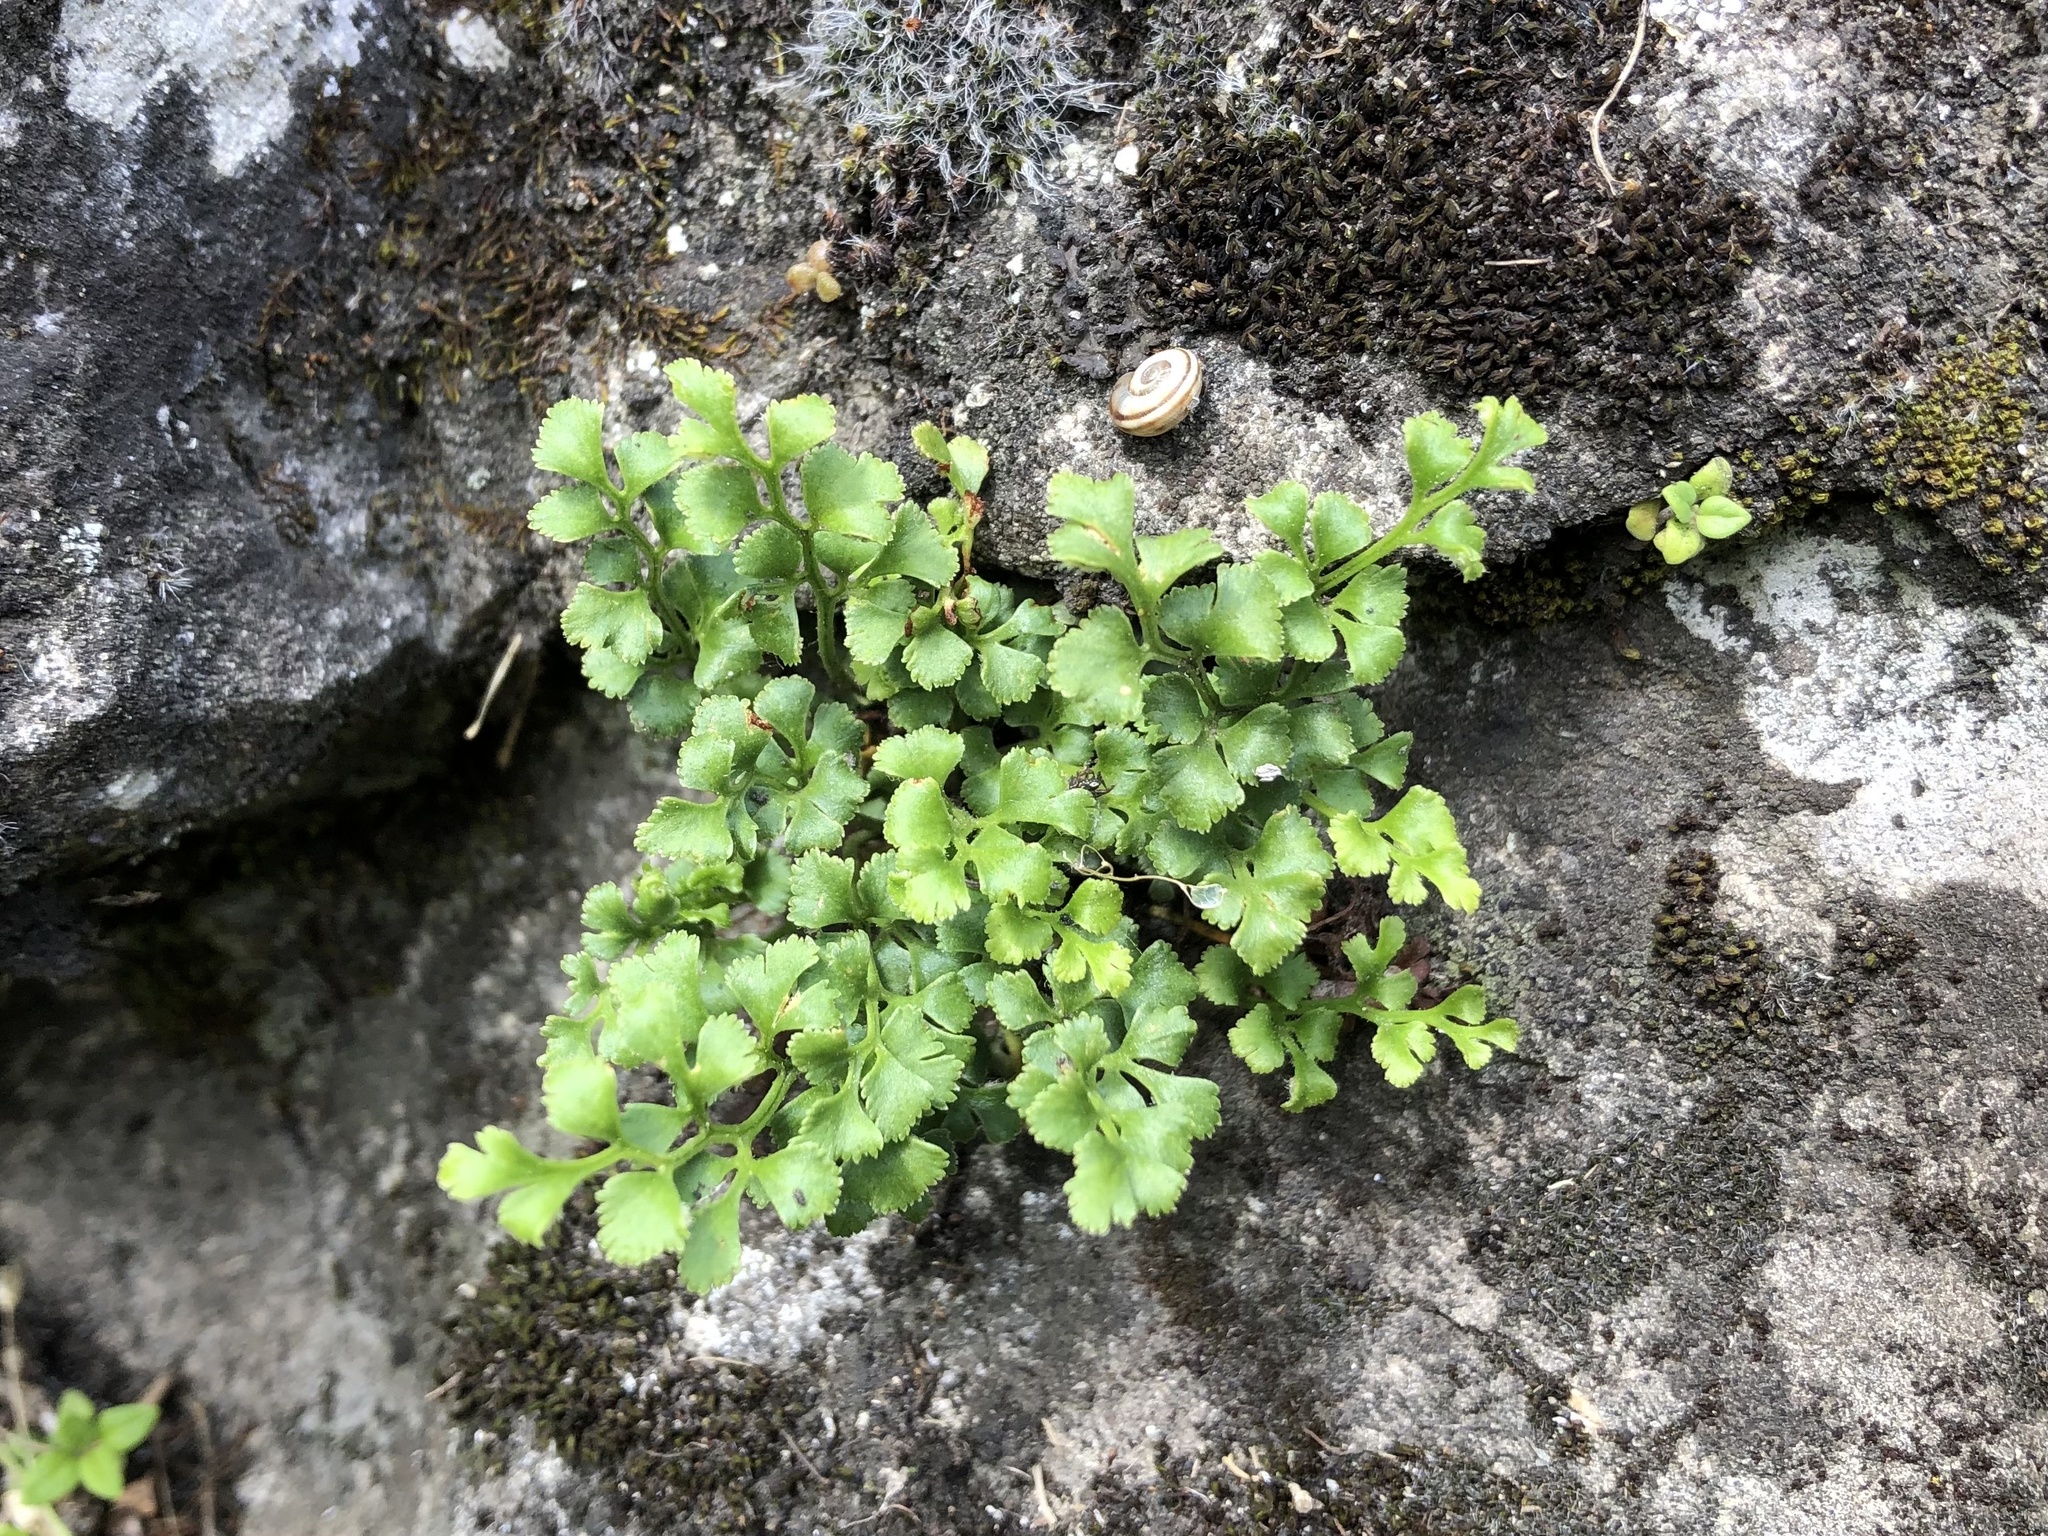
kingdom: Plantae
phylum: Tracheophyta
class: Polypodiopsida
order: Polypodiales
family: Aspleniaceae
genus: Asplenium
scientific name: Asplenium ruta-muraria
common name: Wall-rue
